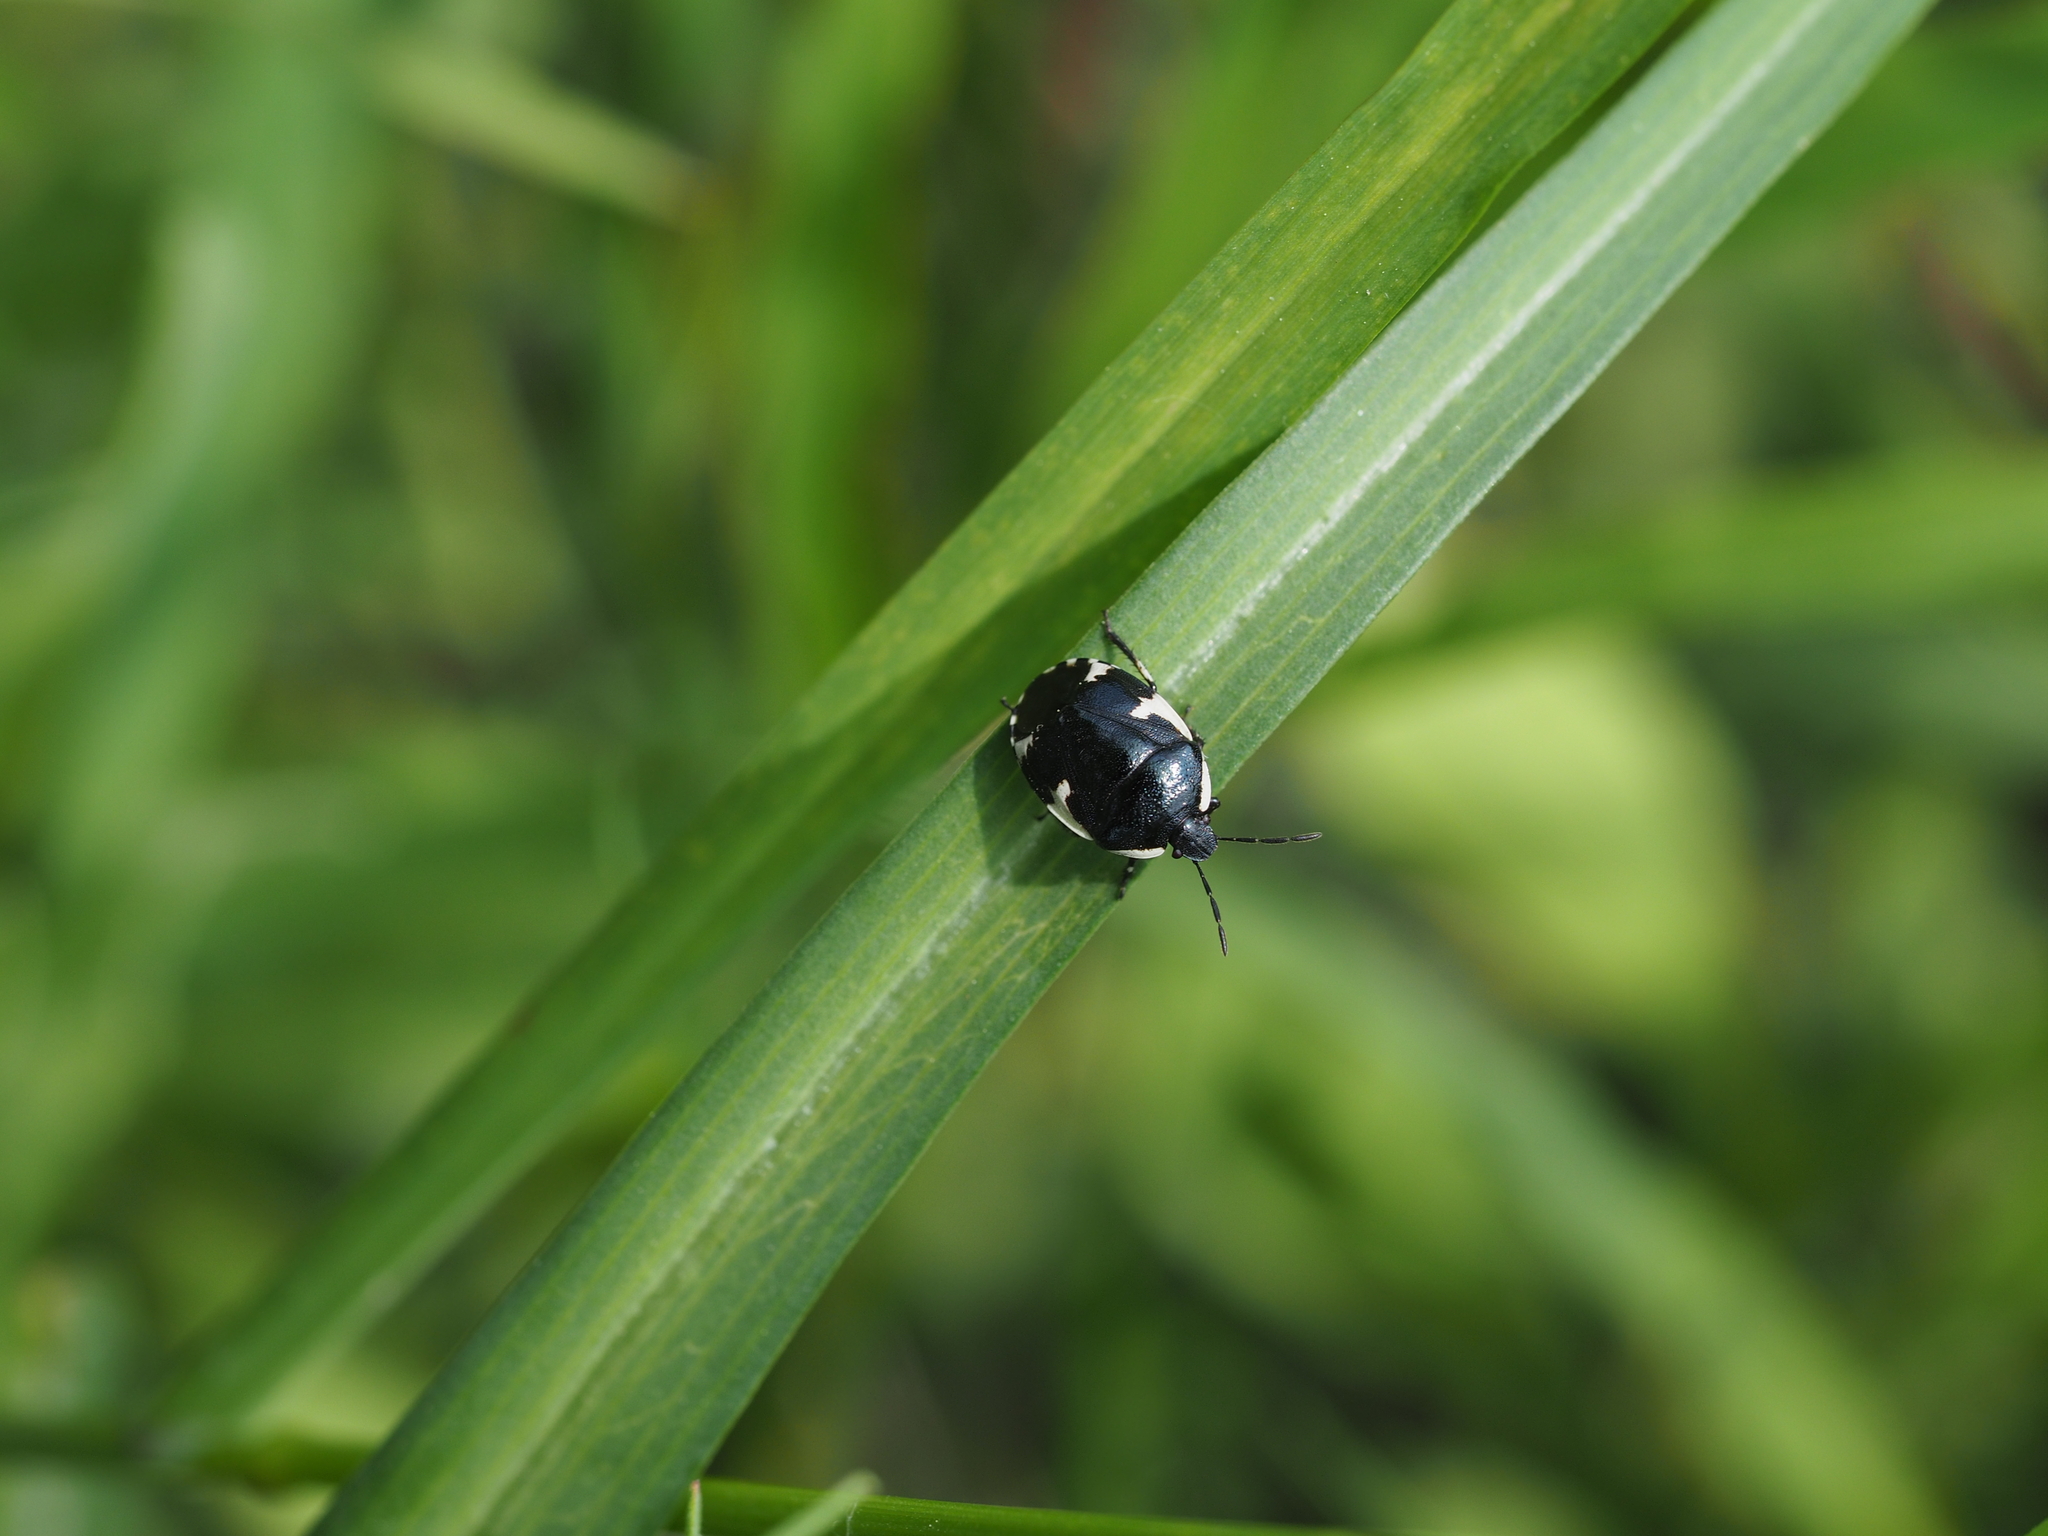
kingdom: Animalia
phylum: Arthropoda
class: Insecta
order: Hemiptera
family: Cydnidae
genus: Tritomegas
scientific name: Tritomegas sexmaculatus
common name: Rambur's pied shieldbug
